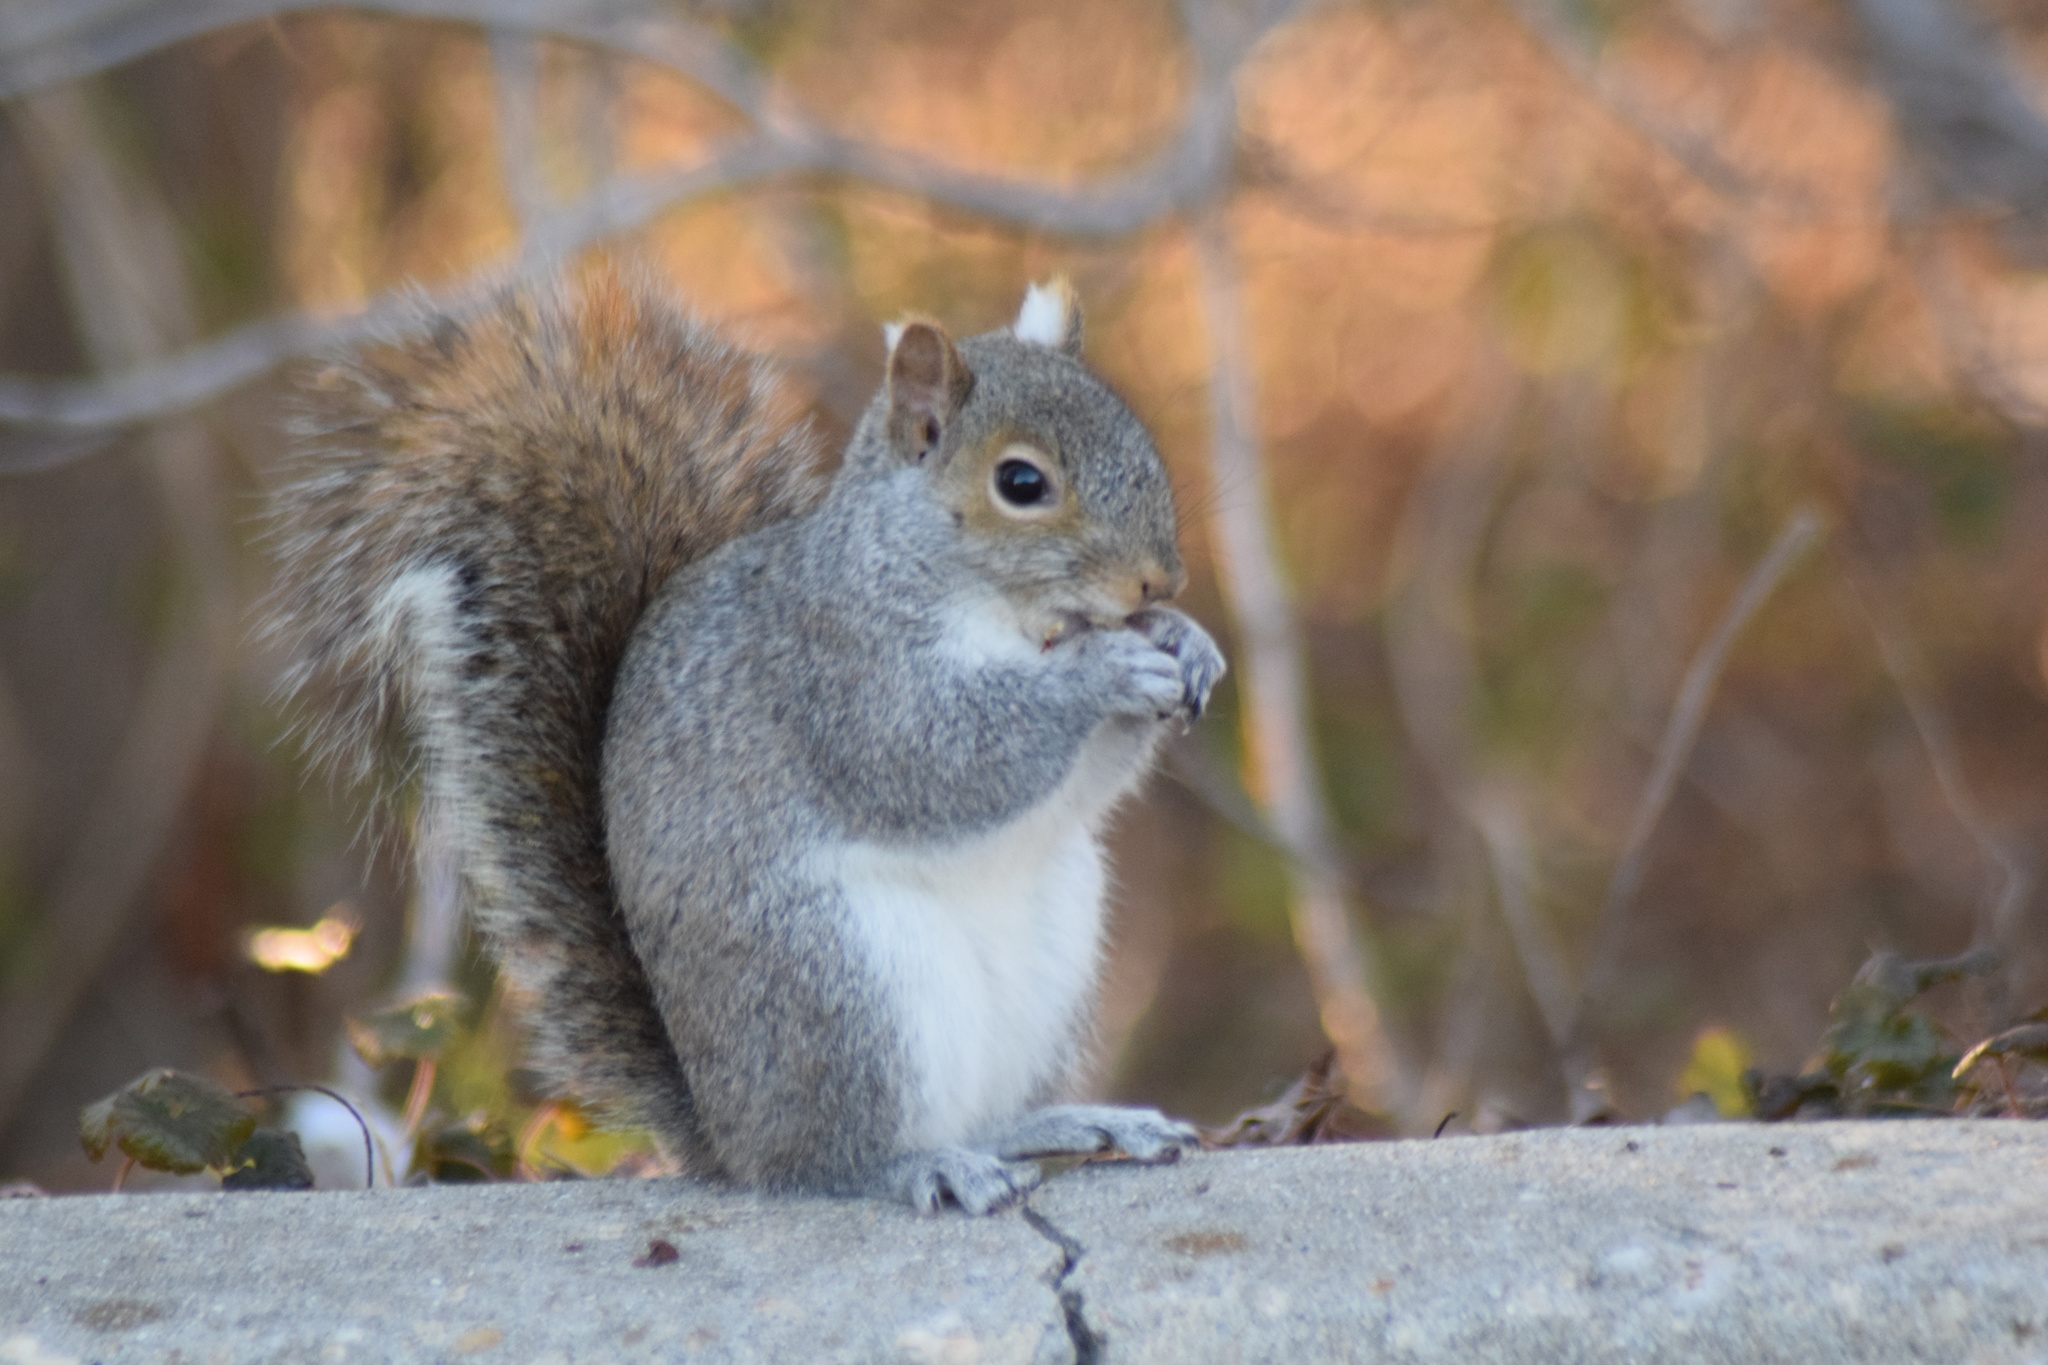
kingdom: Animalia
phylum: Chordata
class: Mammalia
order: Rodentia
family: Sciuridae
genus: Sciurus
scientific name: Sciurus carolinensis
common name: Eastern gray squirrel
